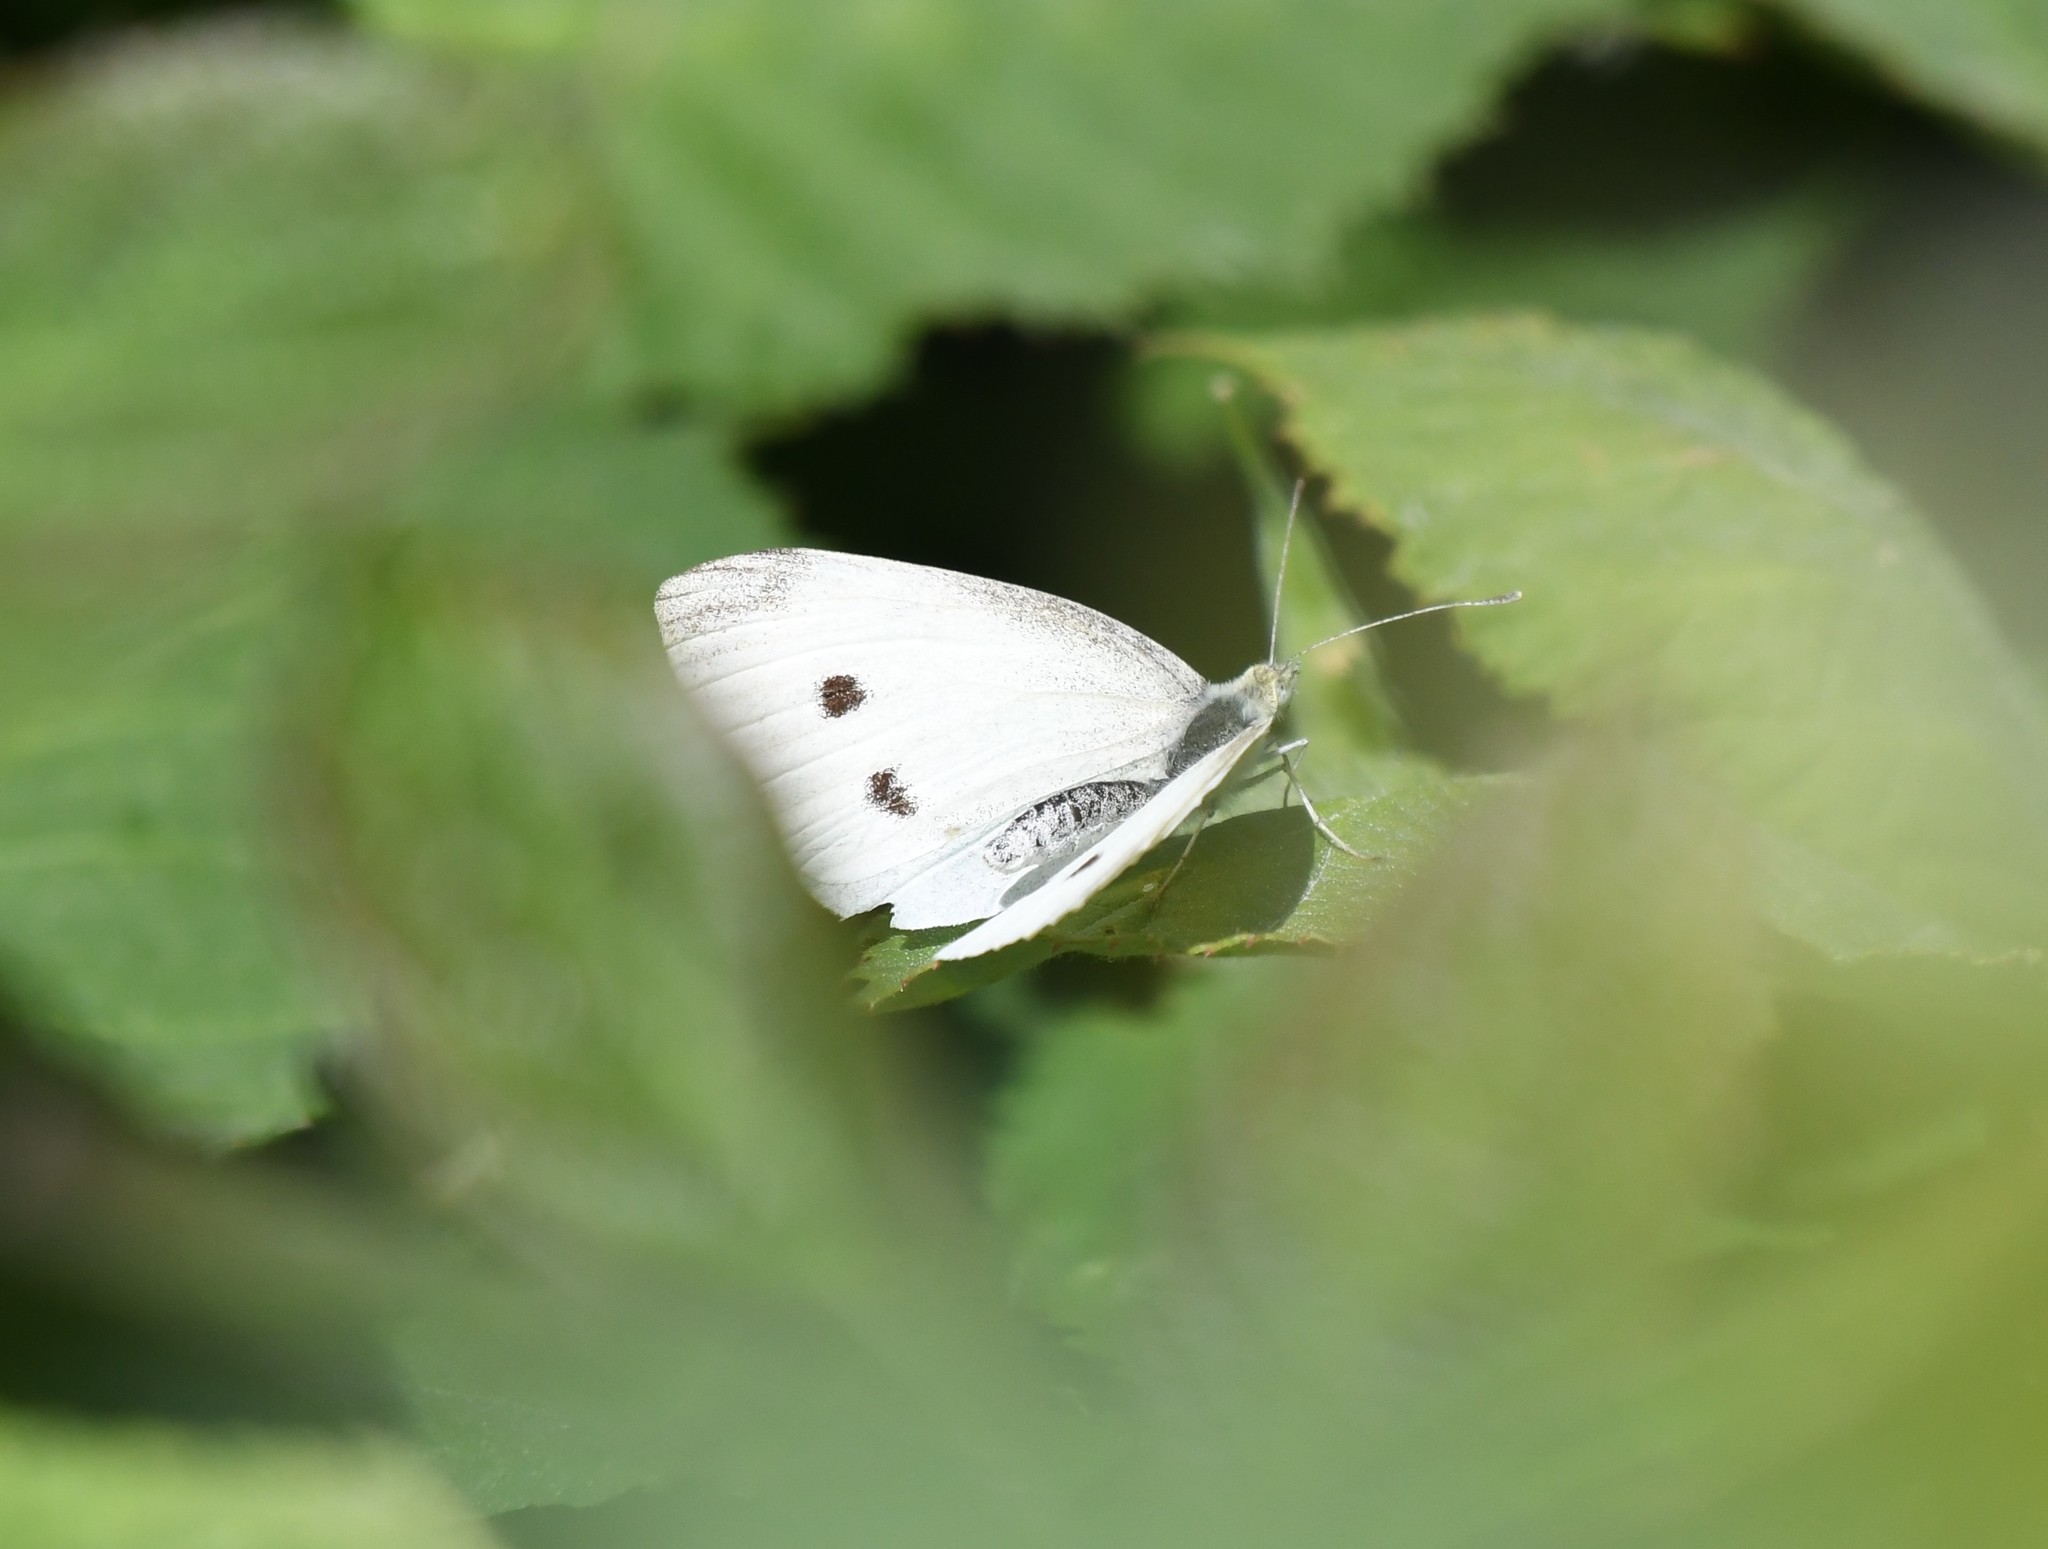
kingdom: Animalia
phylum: Arthropoda
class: Insecta
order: Lepidoptera
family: Pieridae
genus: Pieris
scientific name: Pieris rapae
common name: Small white
